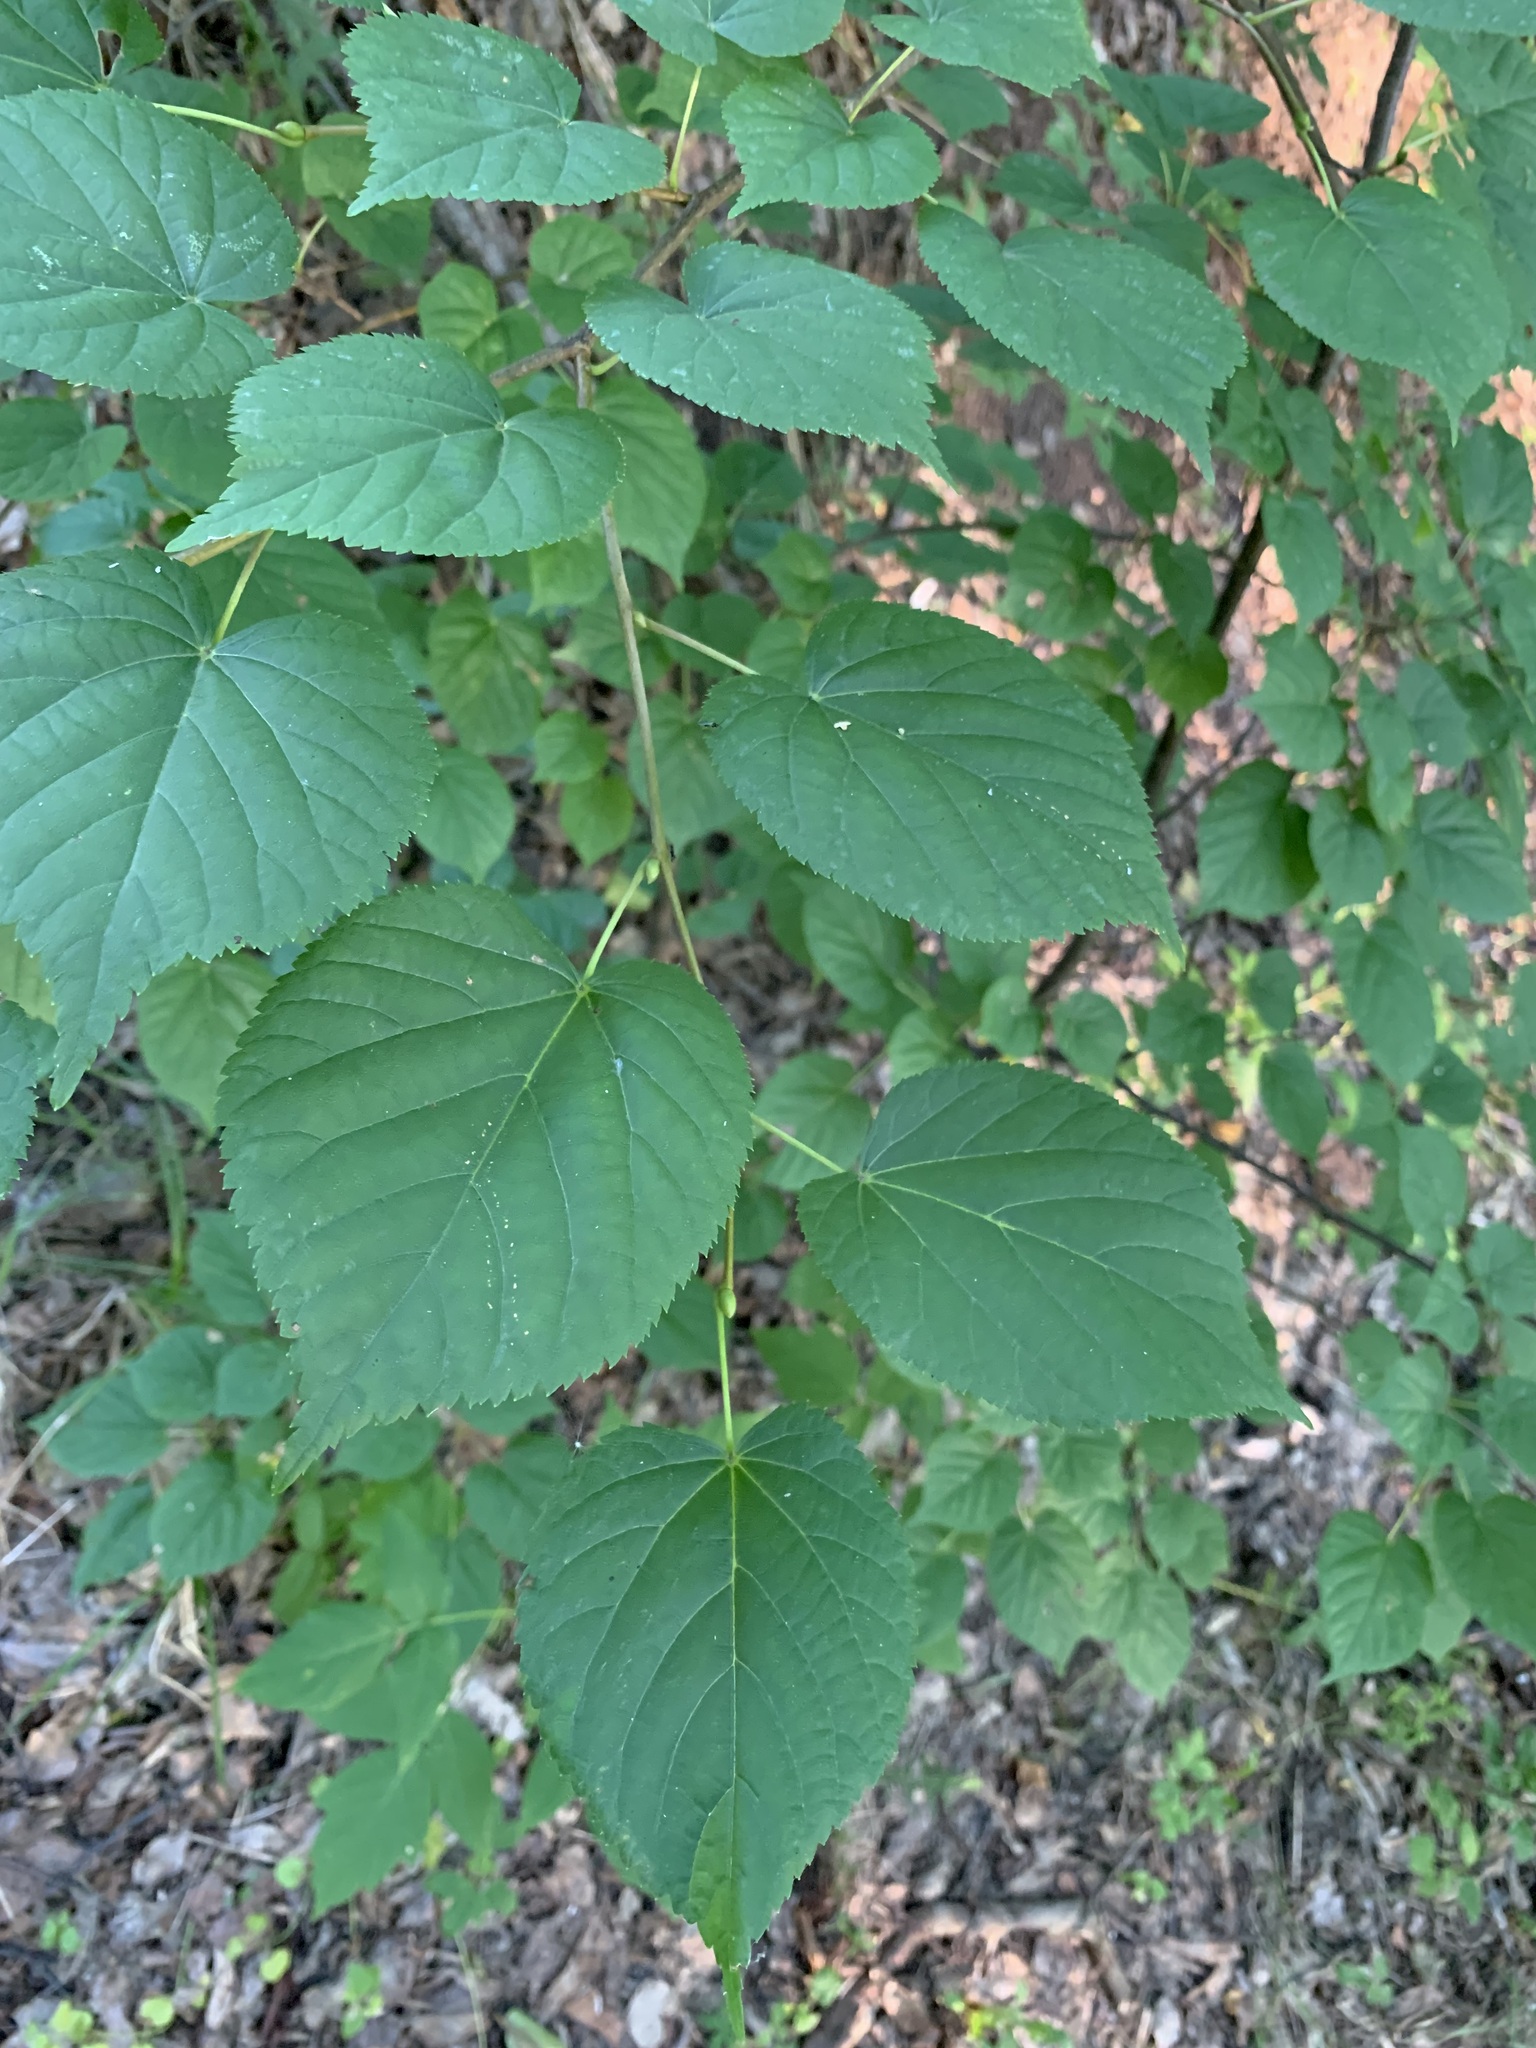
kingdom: Plantae
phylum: Tracheophyta
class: Magnoliopsida
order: Malvales
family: Malvaceae
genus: Tilia
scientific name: Tilia cordata
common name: Small-leaved lime
